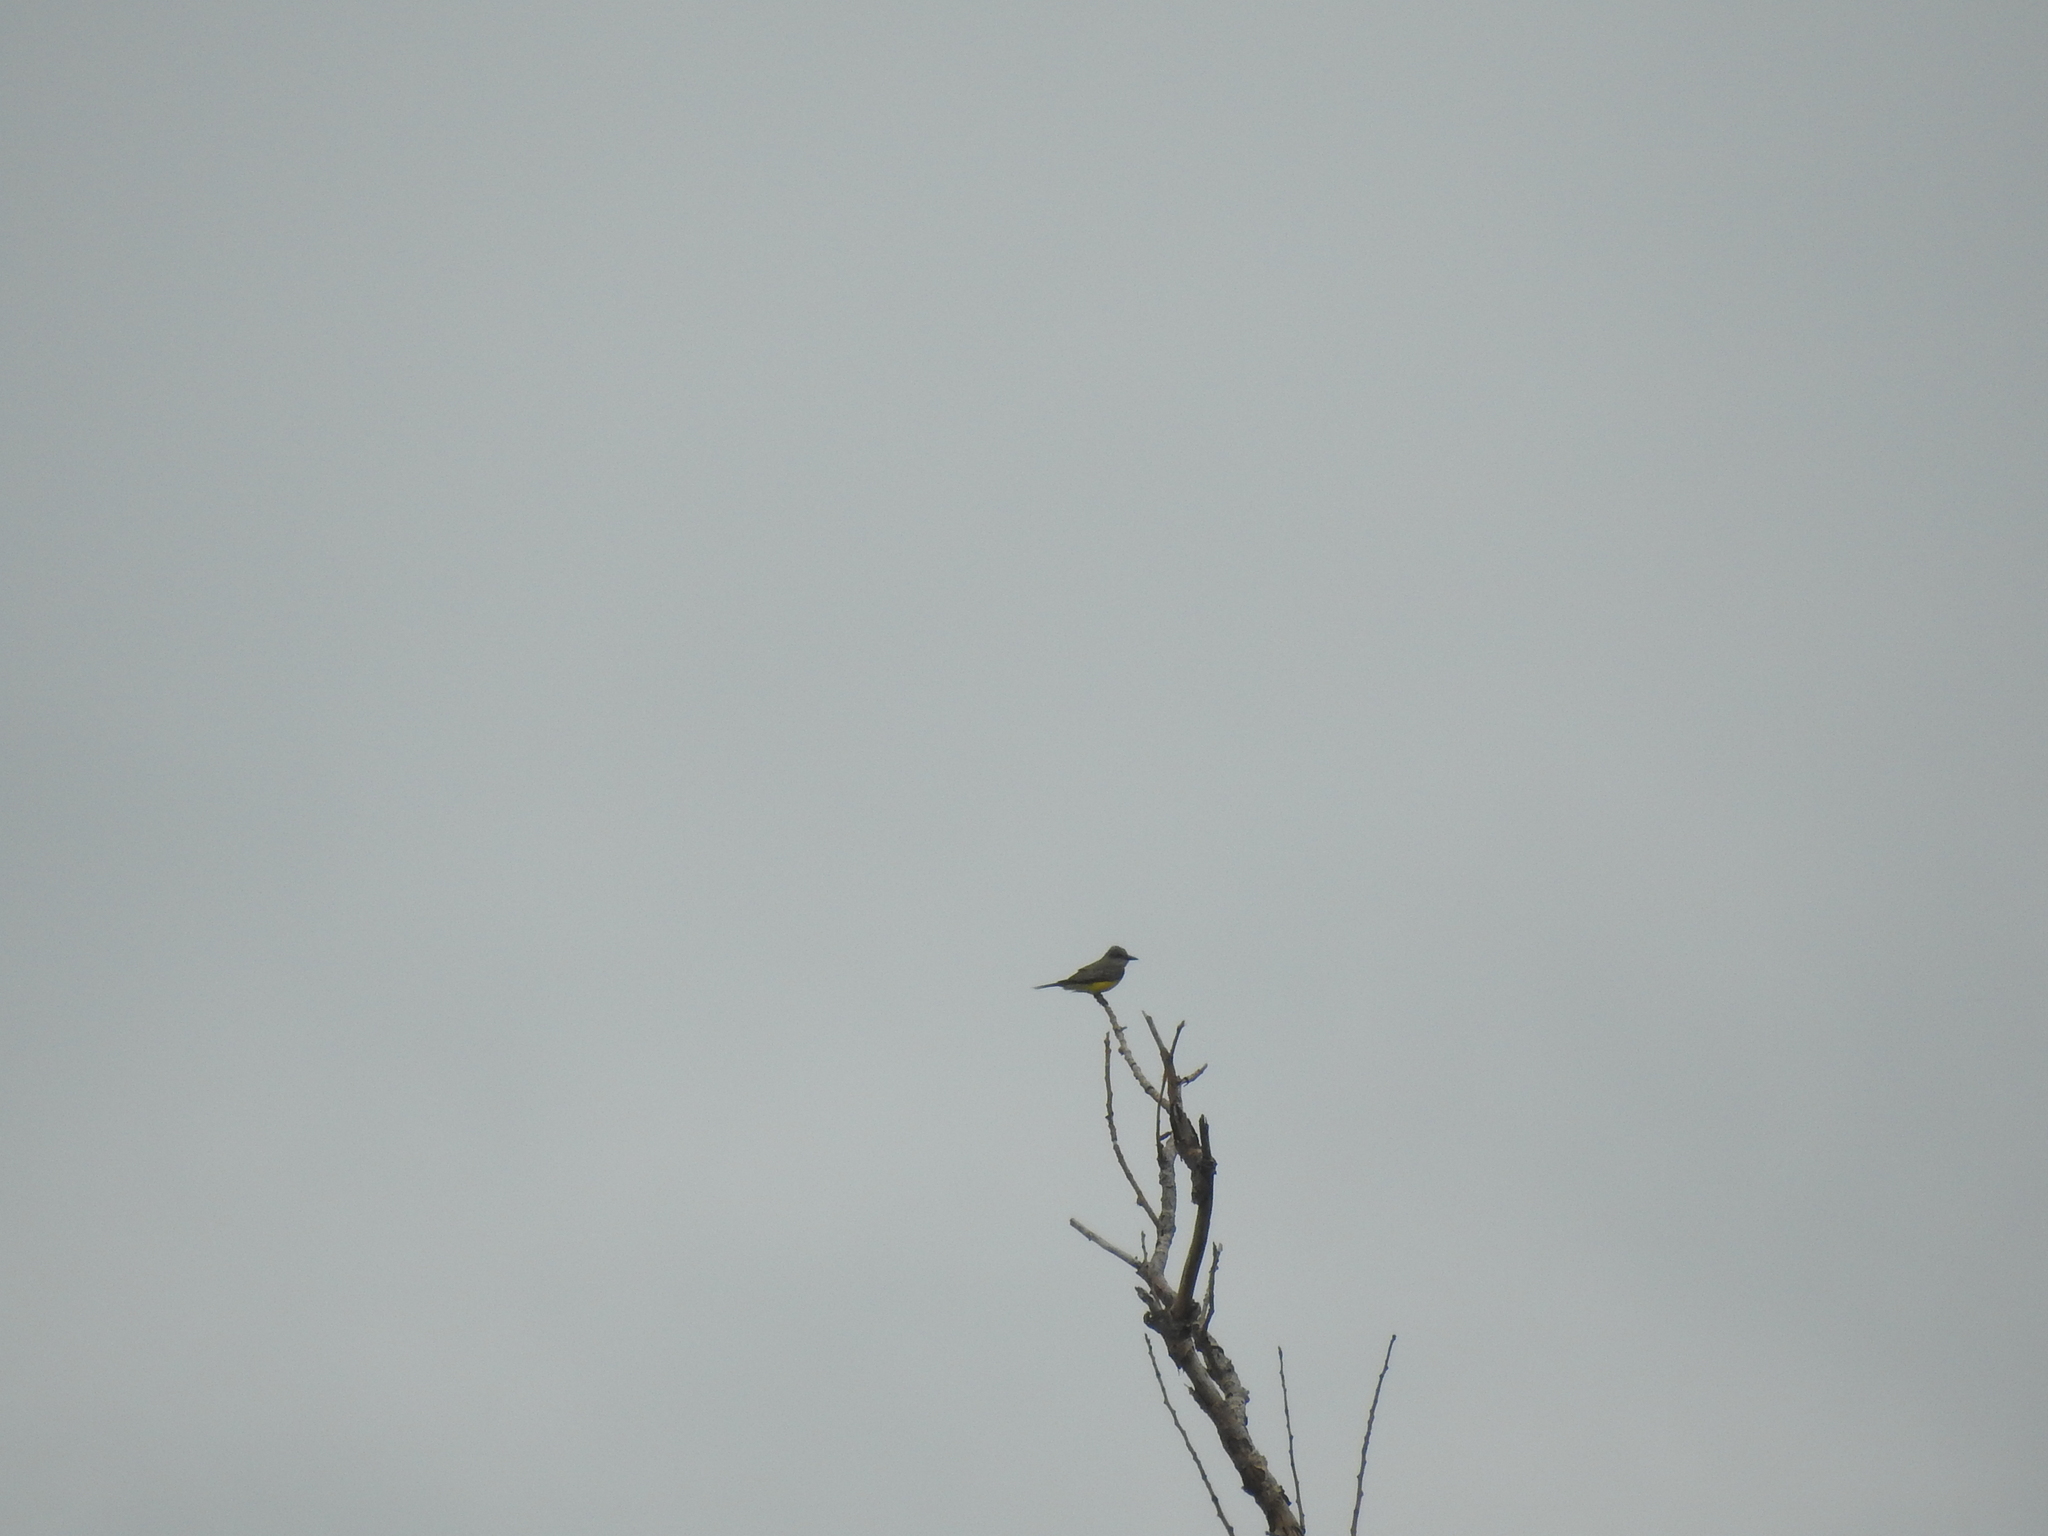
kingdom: Animalia
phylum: Chordata
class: Aves
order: Passeriformes
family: Tyrannidae
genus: Tyrannus
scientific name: Tyrannus melancholicus
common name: Tropical kingbird
